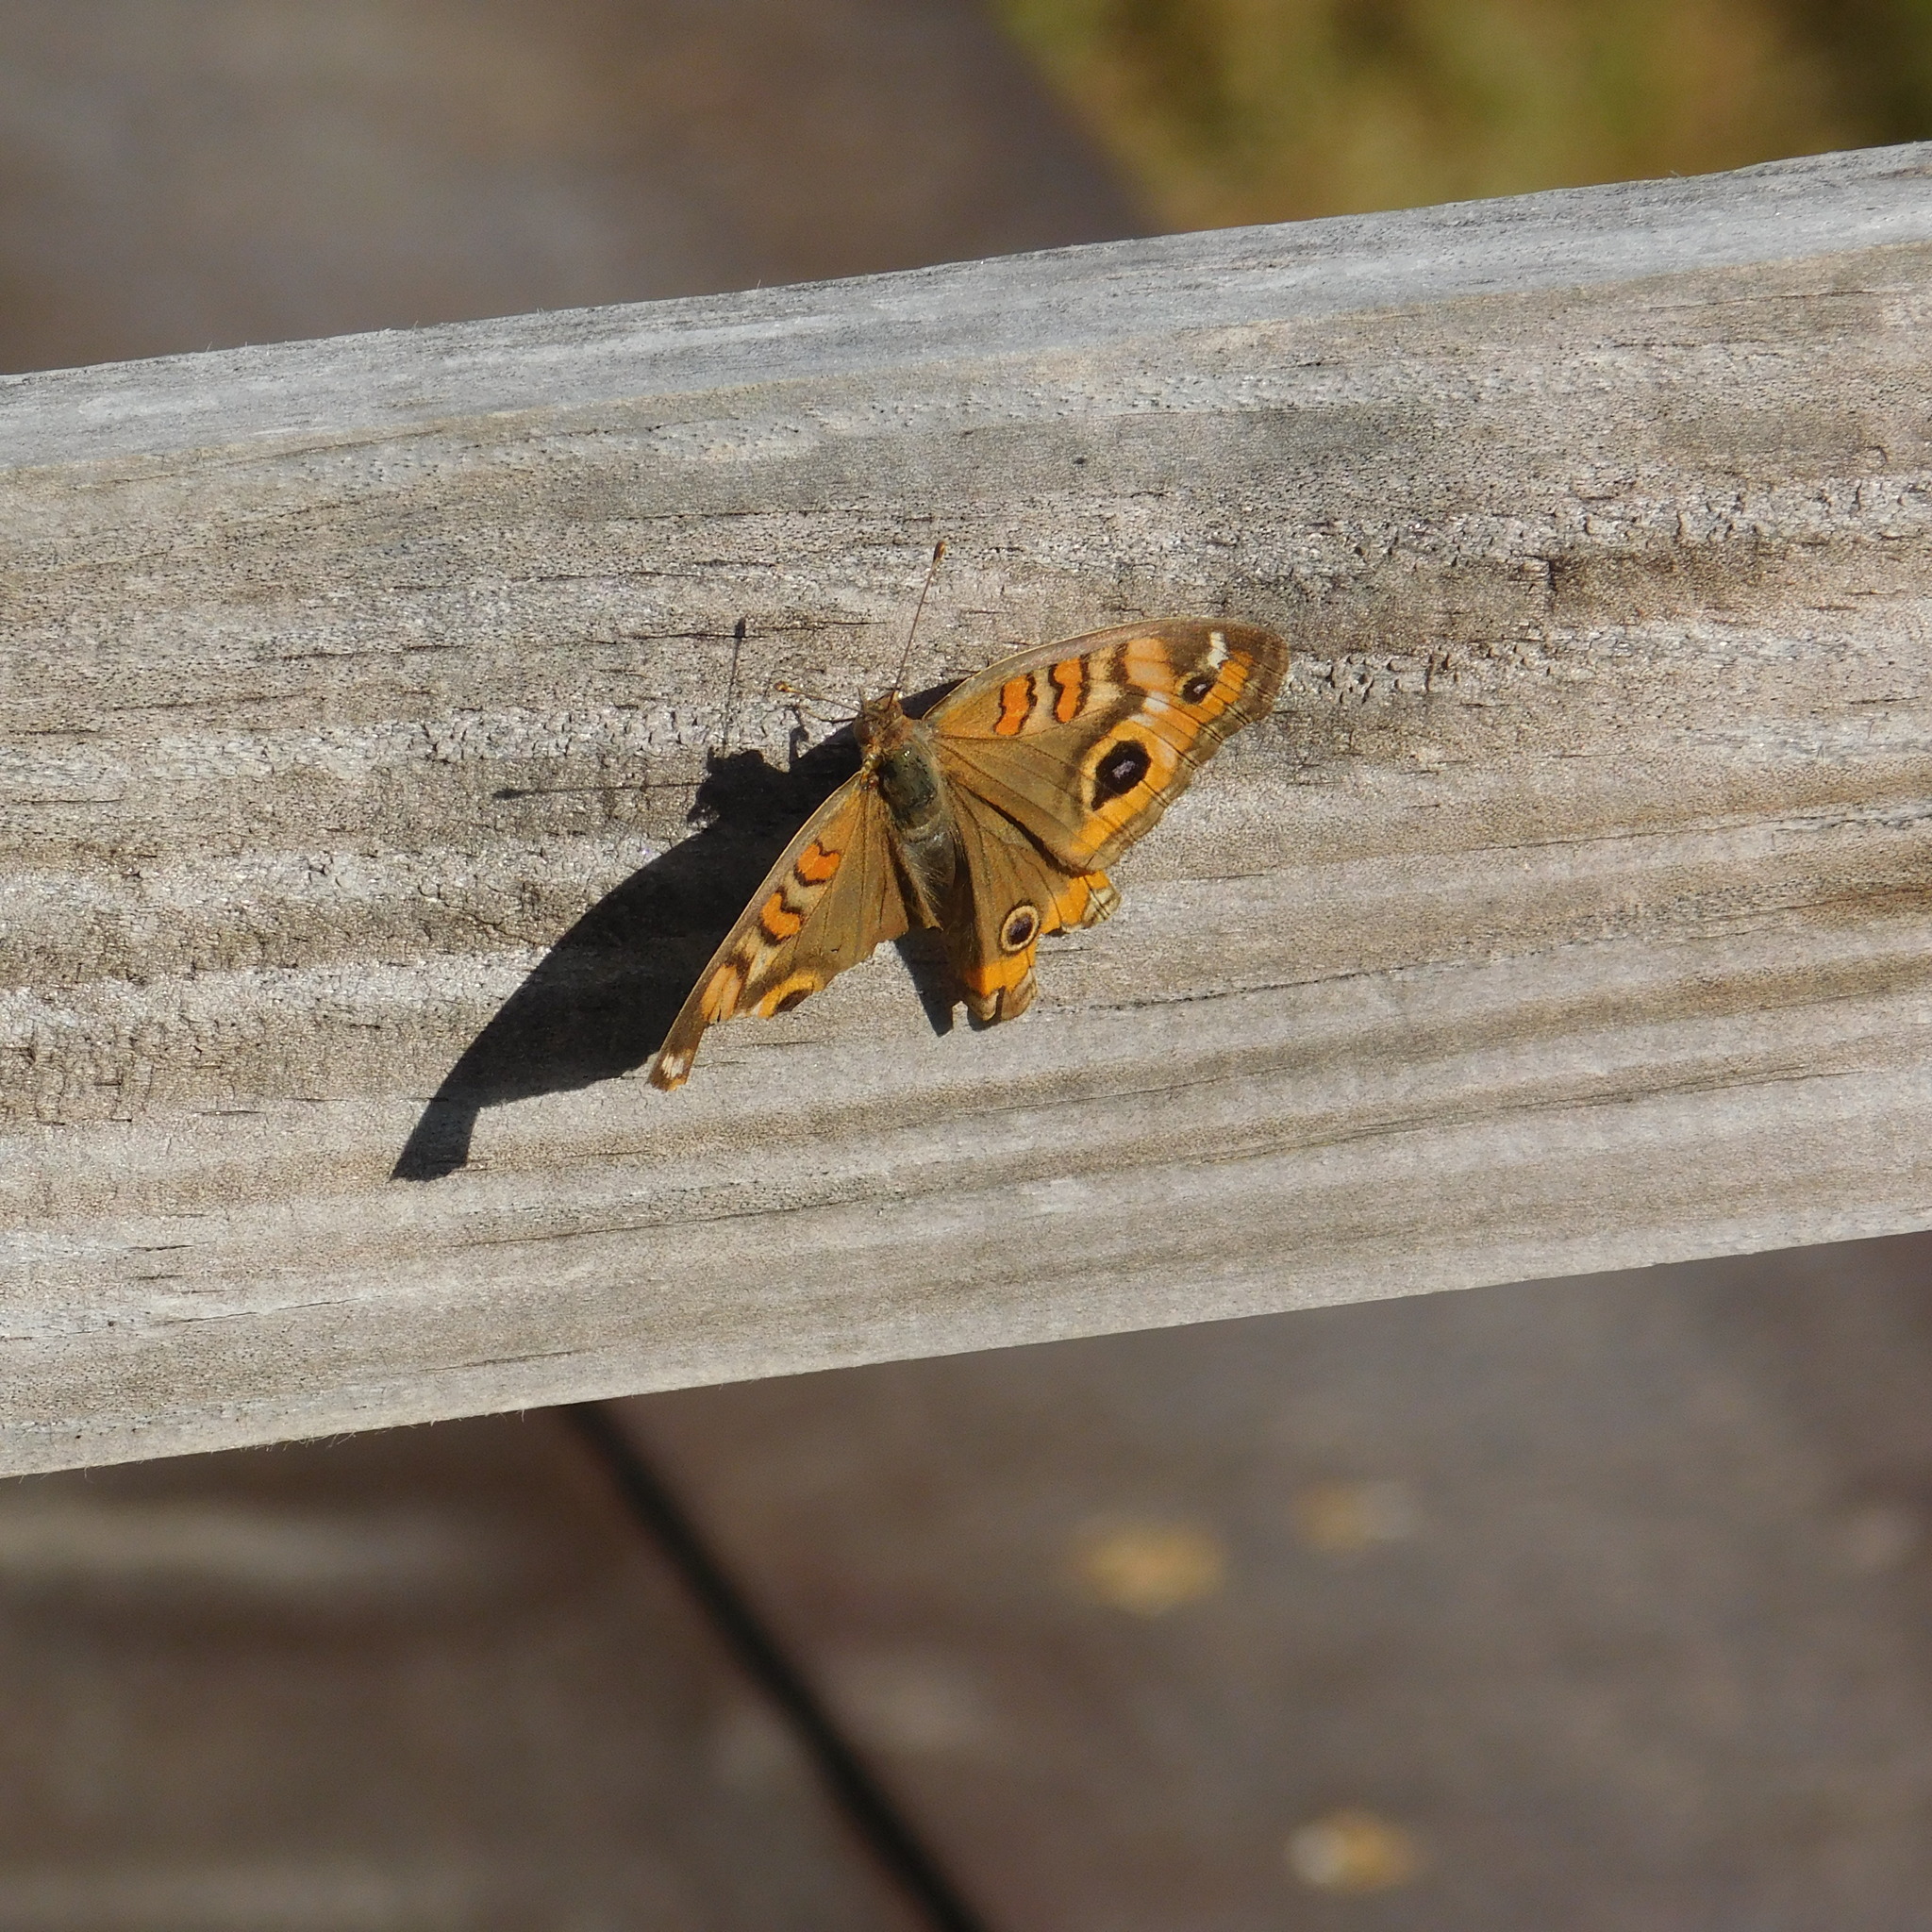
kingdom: Animalia
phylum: Arthropoda
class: Insecta
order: Lepidoptera
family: Nymphalidae
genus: Junonia
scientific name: Junonia lavinia
